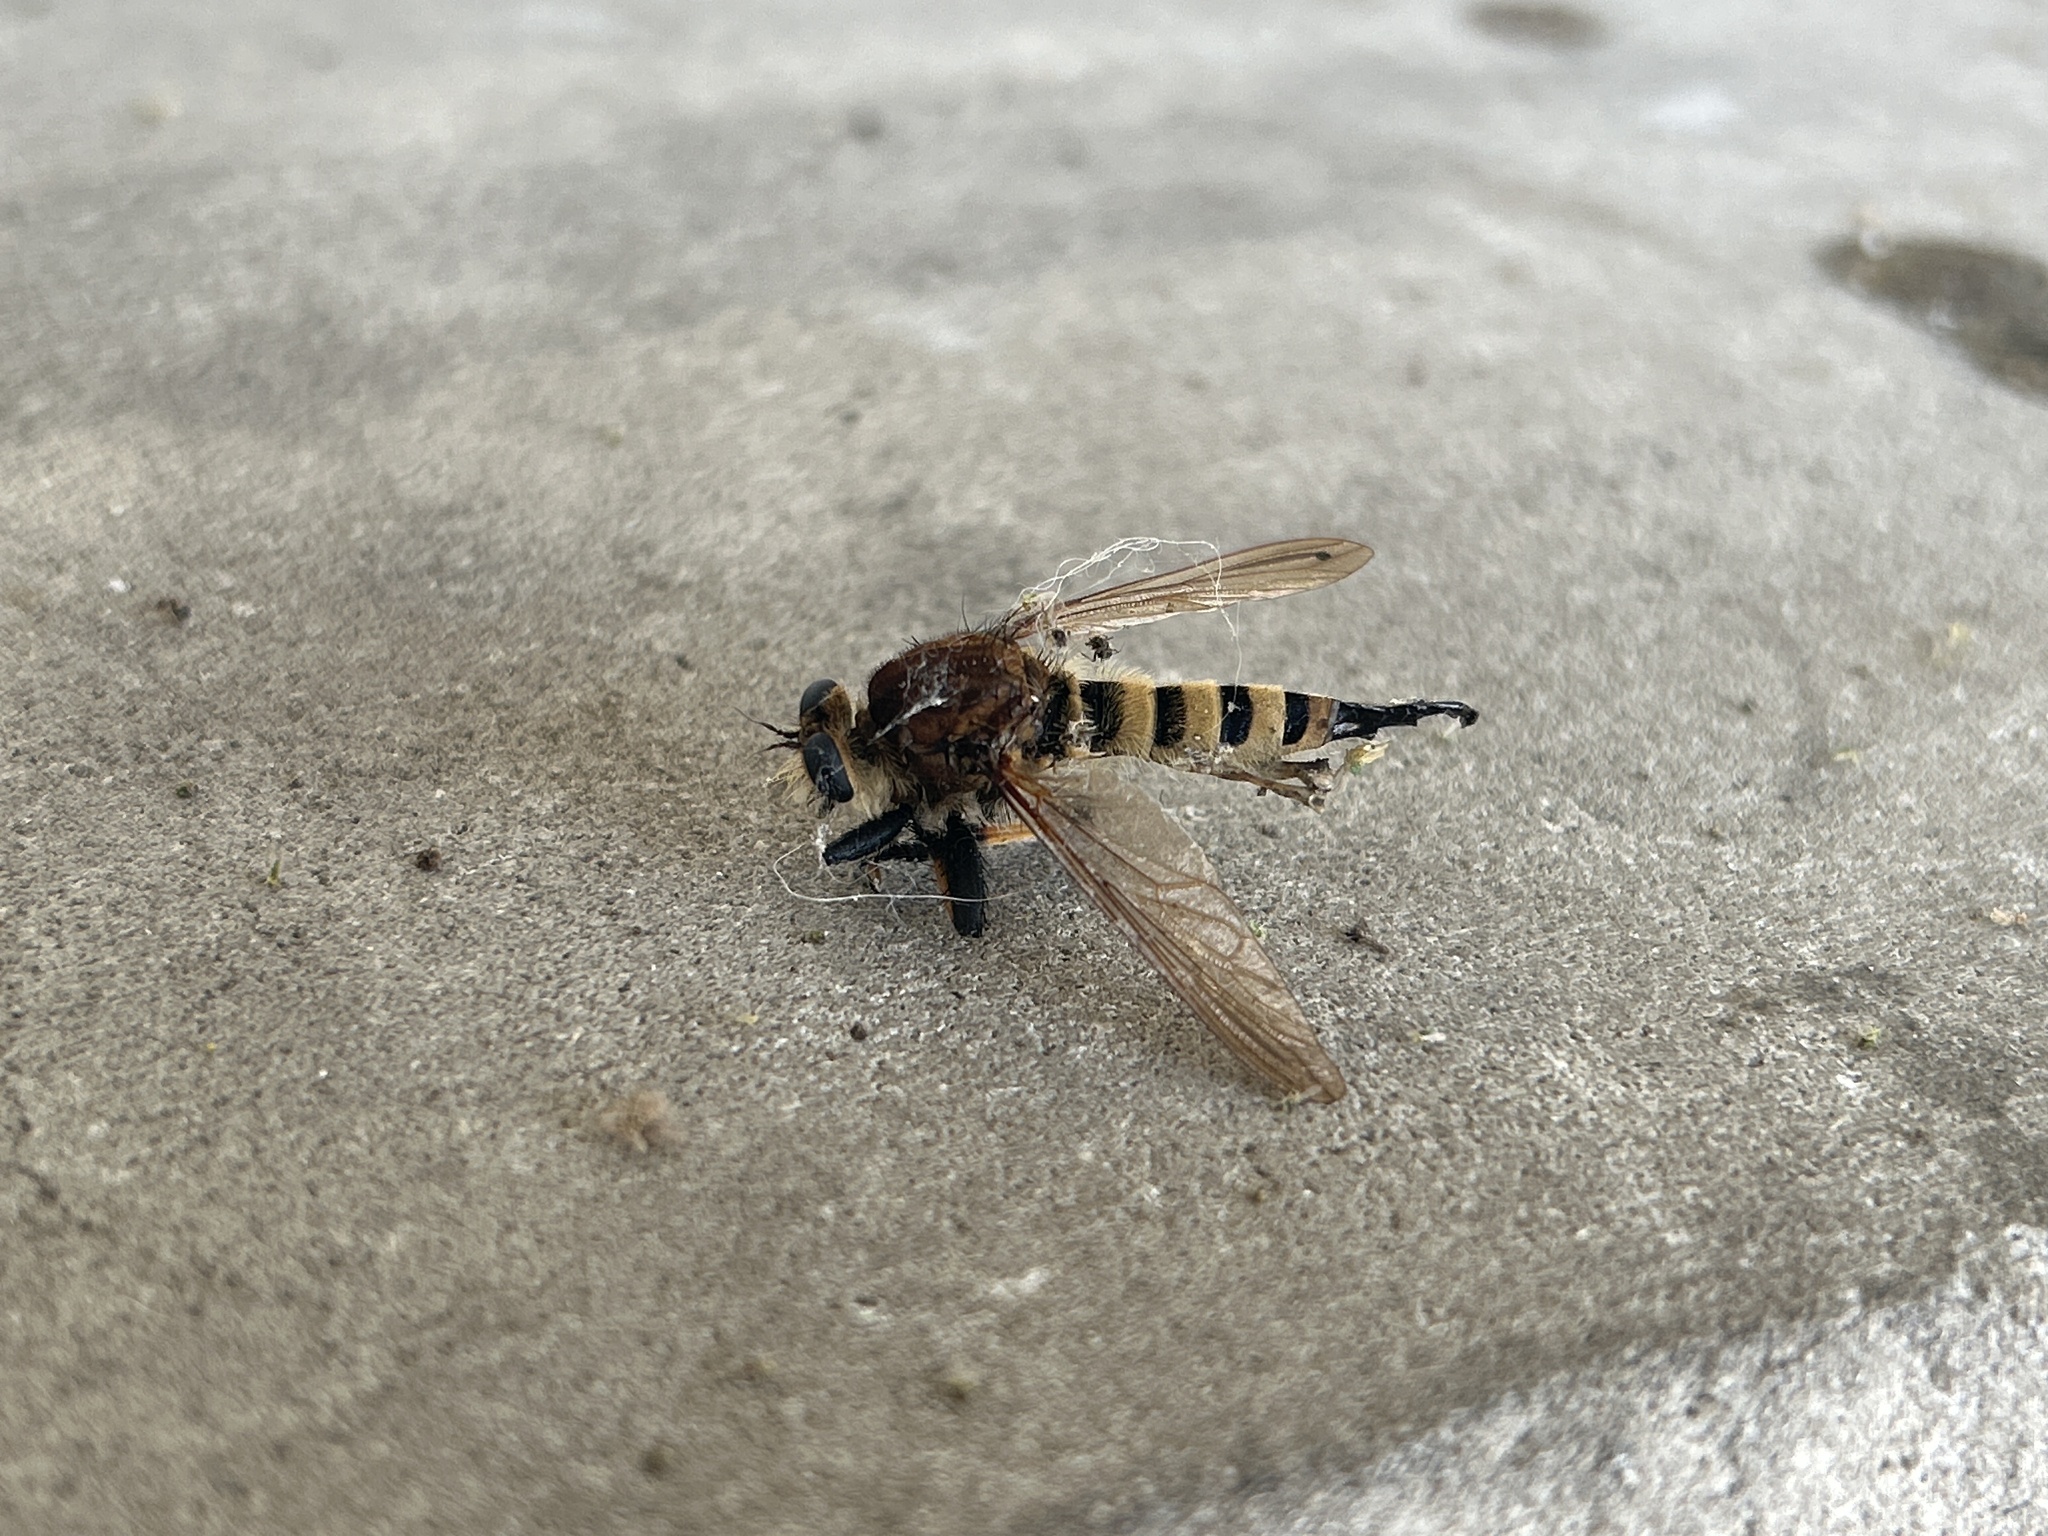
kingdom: Animalia
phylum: Arthropoda
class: Insecta
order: Diptera
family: Asilidae
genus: Promachus
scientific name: Promachus rufipes
